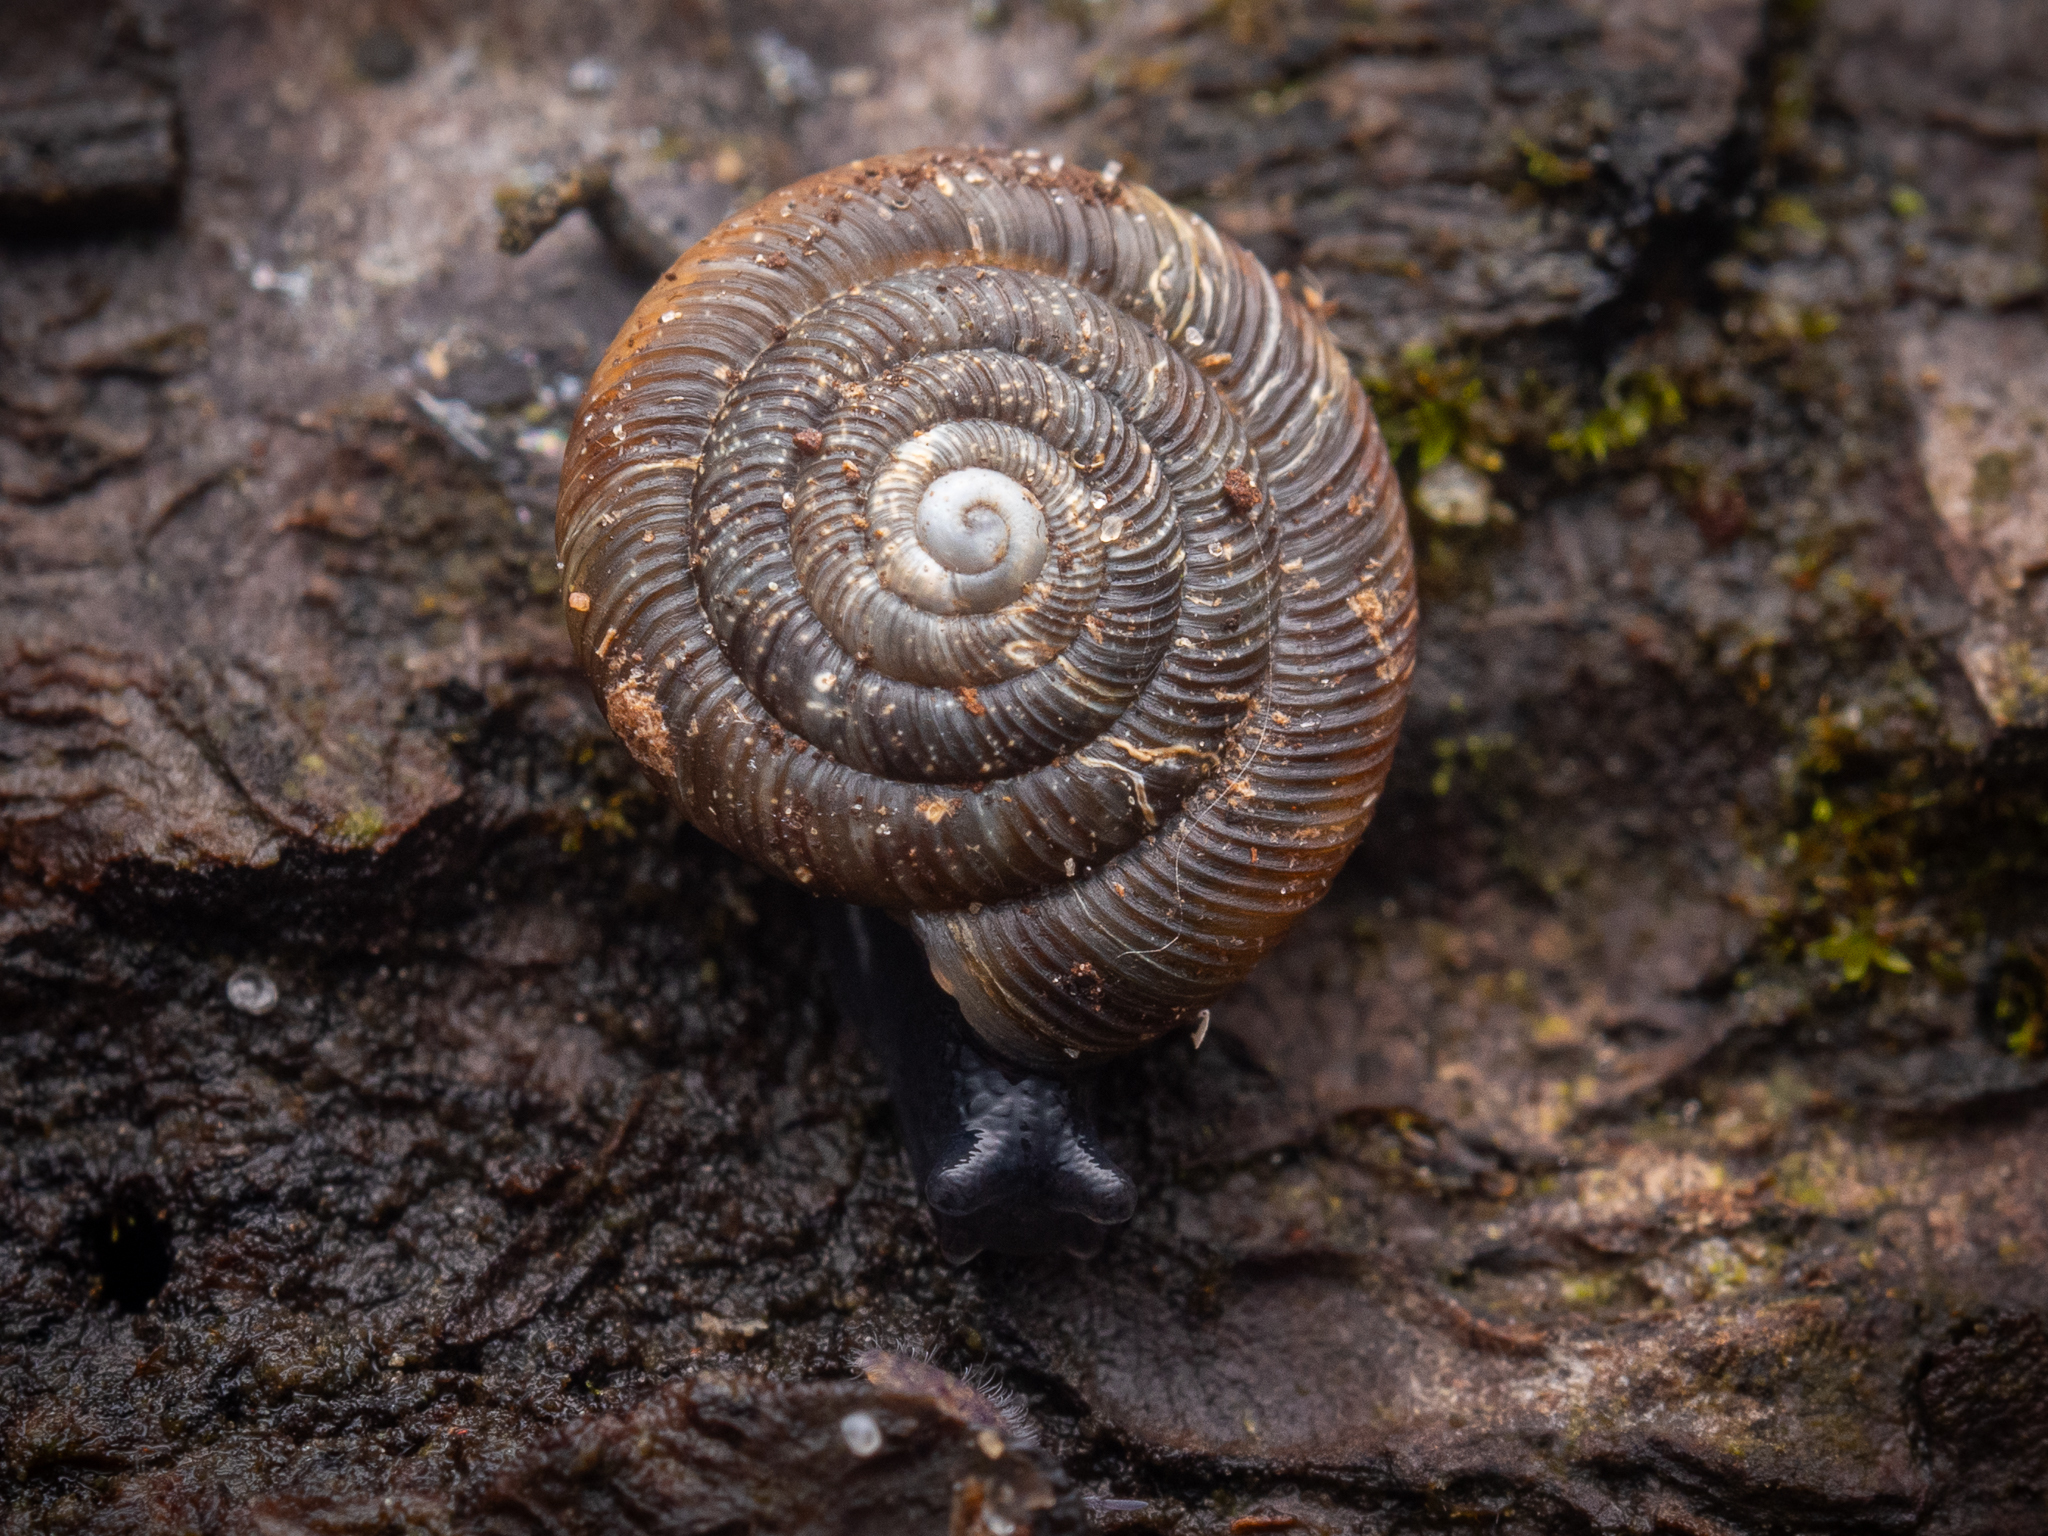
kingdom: Animalia
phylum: Mollusca
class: Gastropoda
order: Stylommatophora
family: Discidae
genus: Discus
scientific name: Discus rotundatus
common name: Rounded snail
